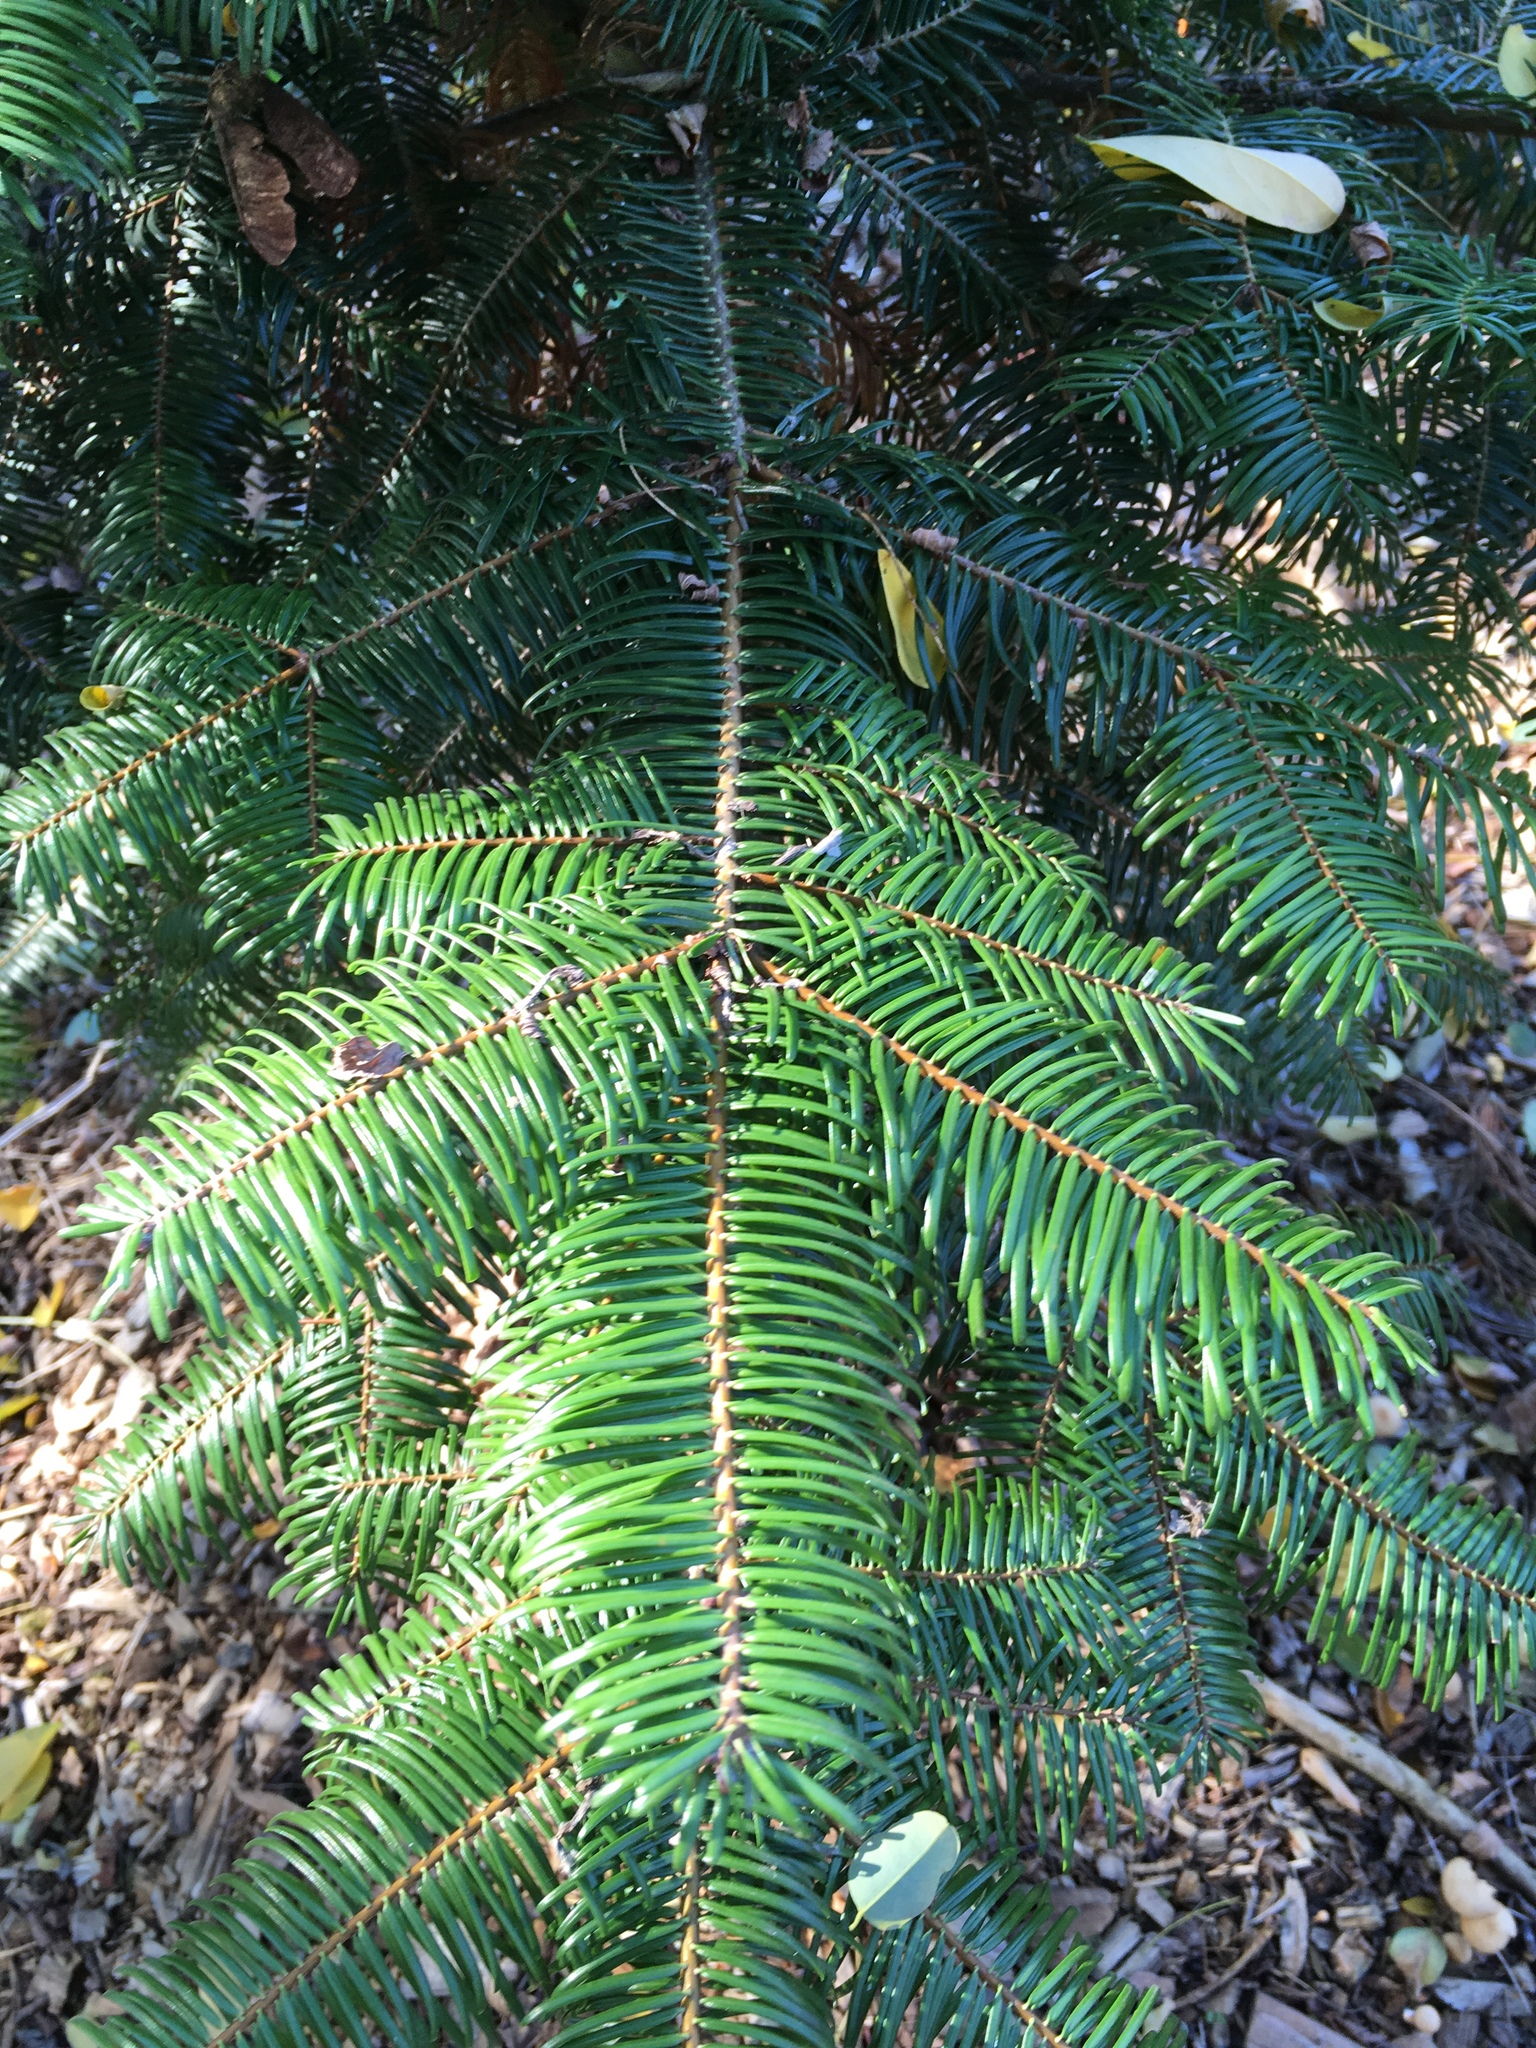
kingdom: Plantae
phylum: Tracheophyta
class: Pinopsida
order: Pinales
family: Pinaceae
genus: Abies
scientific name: Abies grandis
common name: Giant fir
